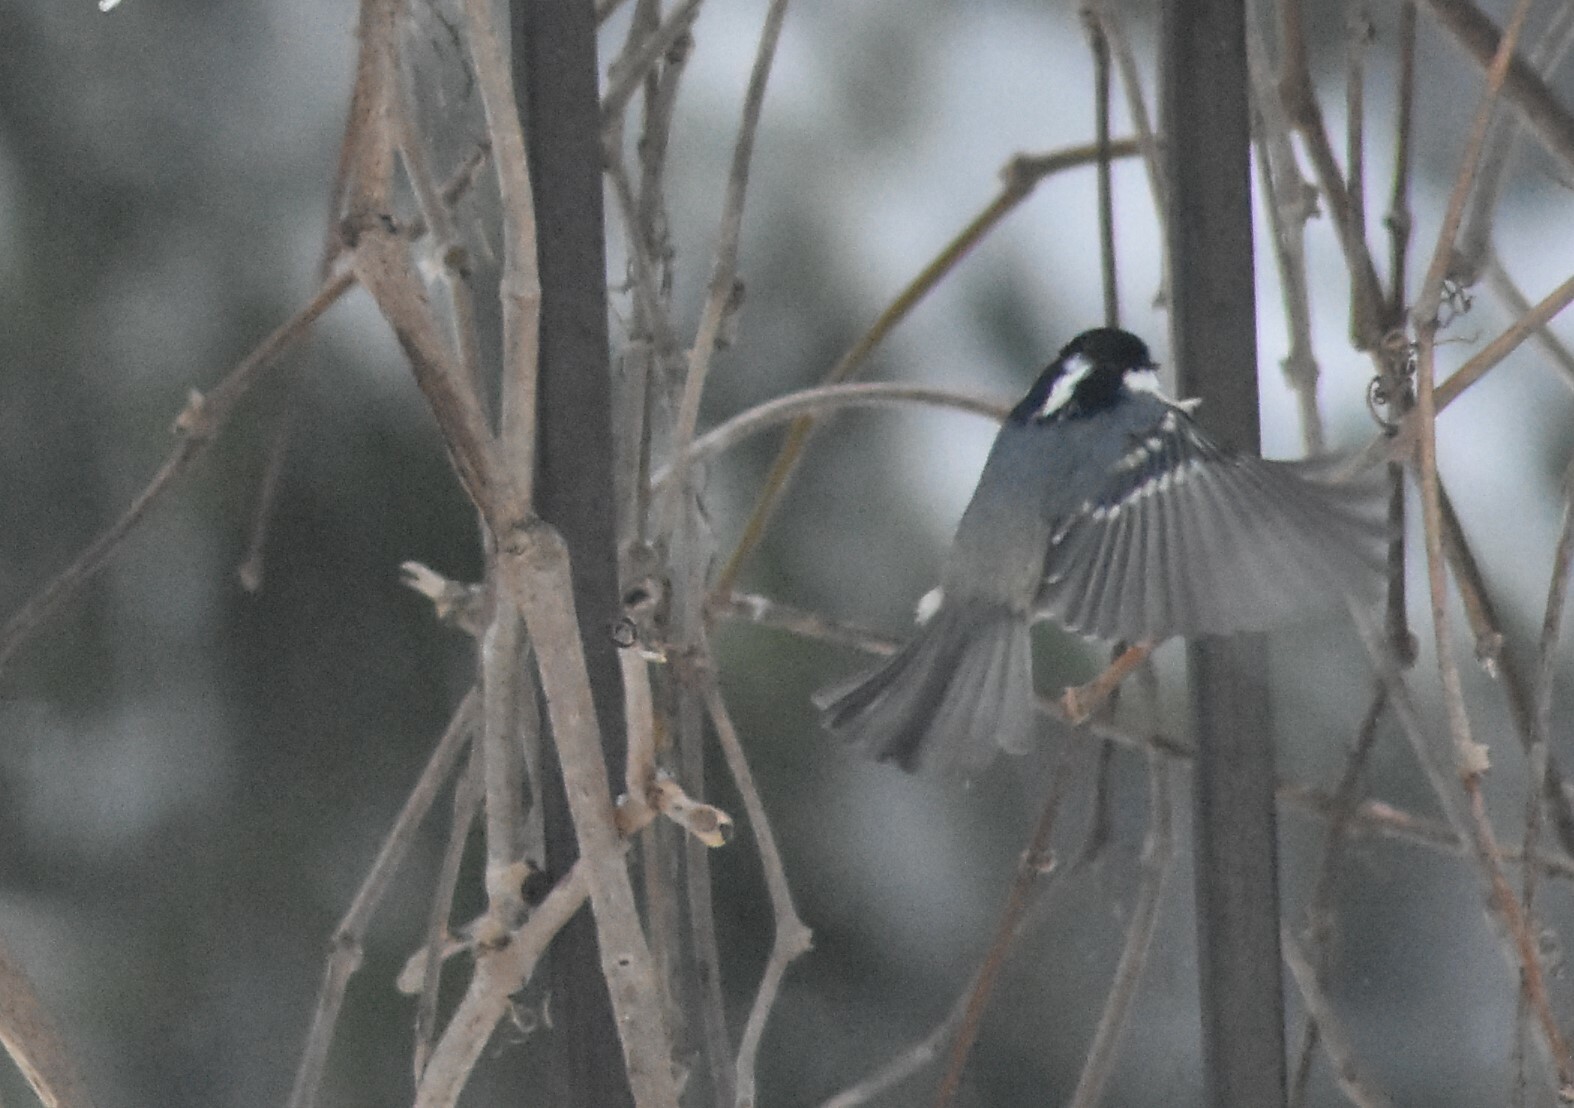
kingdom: Animalia
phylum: Chordata
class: Aves
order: Passeriformes
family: Paridae
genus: Periparus
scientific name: Periparus ater
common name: Coal tit
